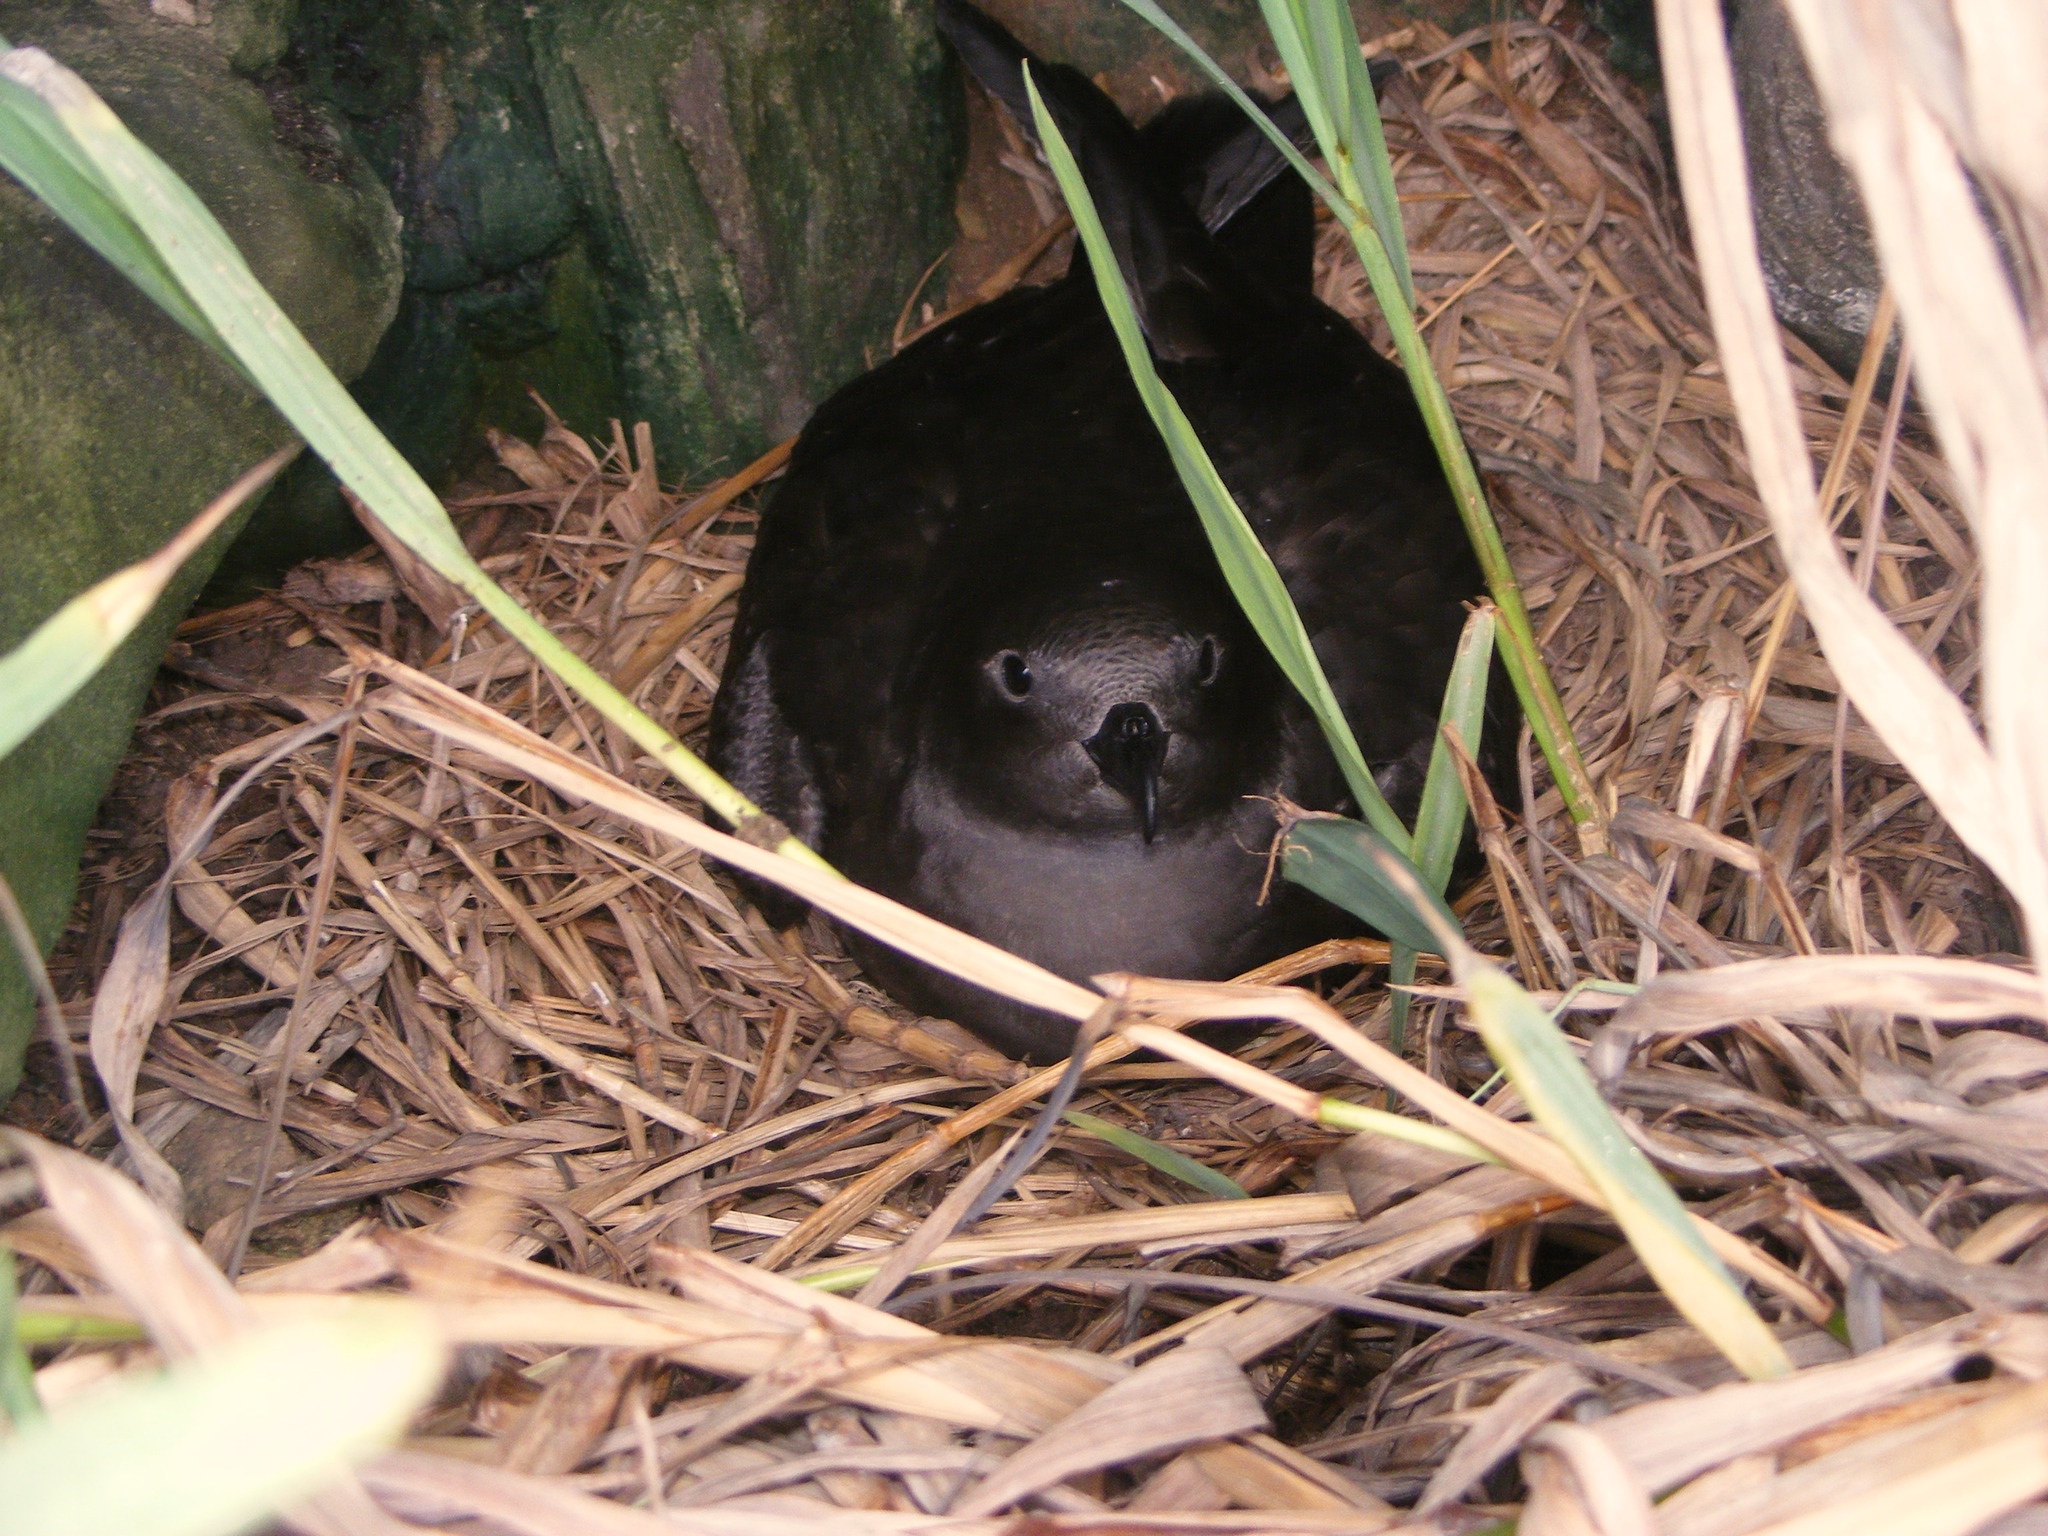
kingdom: Animalia
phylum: Chordata
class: Aves
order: Procellariiformes
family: Procellariidae
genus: Pterodroma
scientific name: Pterodroma atrata
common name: Henderson petrel
